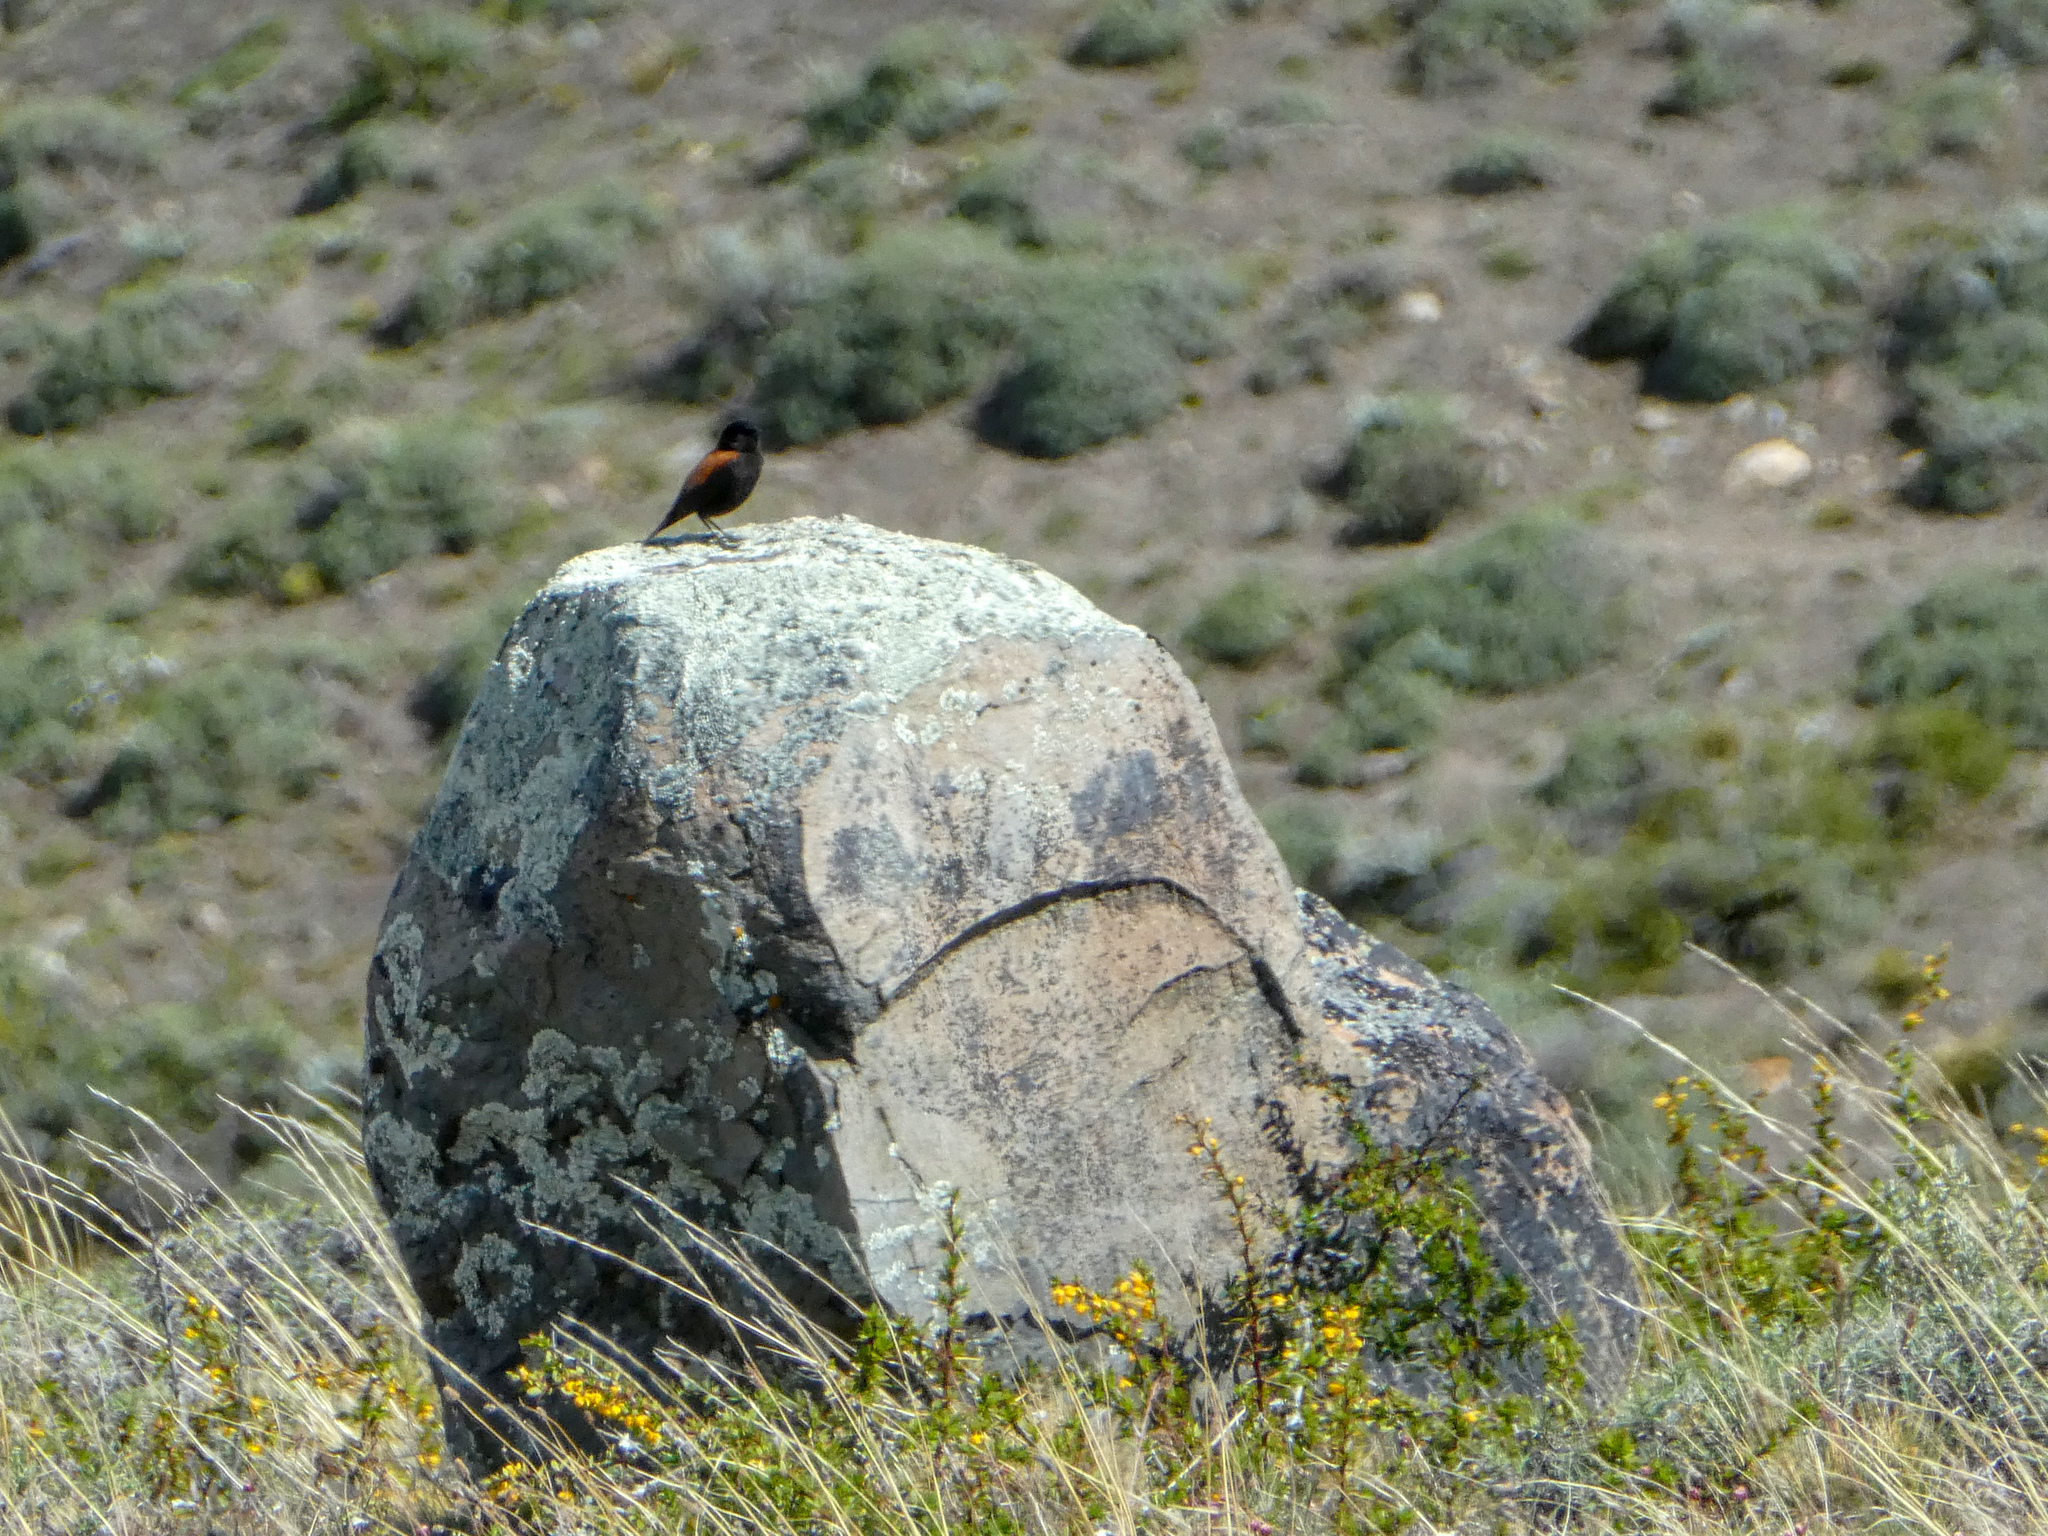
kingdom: Animalia
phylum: Chordata
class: Aves
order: Passeriformes
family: Tyrannidae
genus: Lessonia
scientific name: Lessonia rufa
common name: Austral negrito
